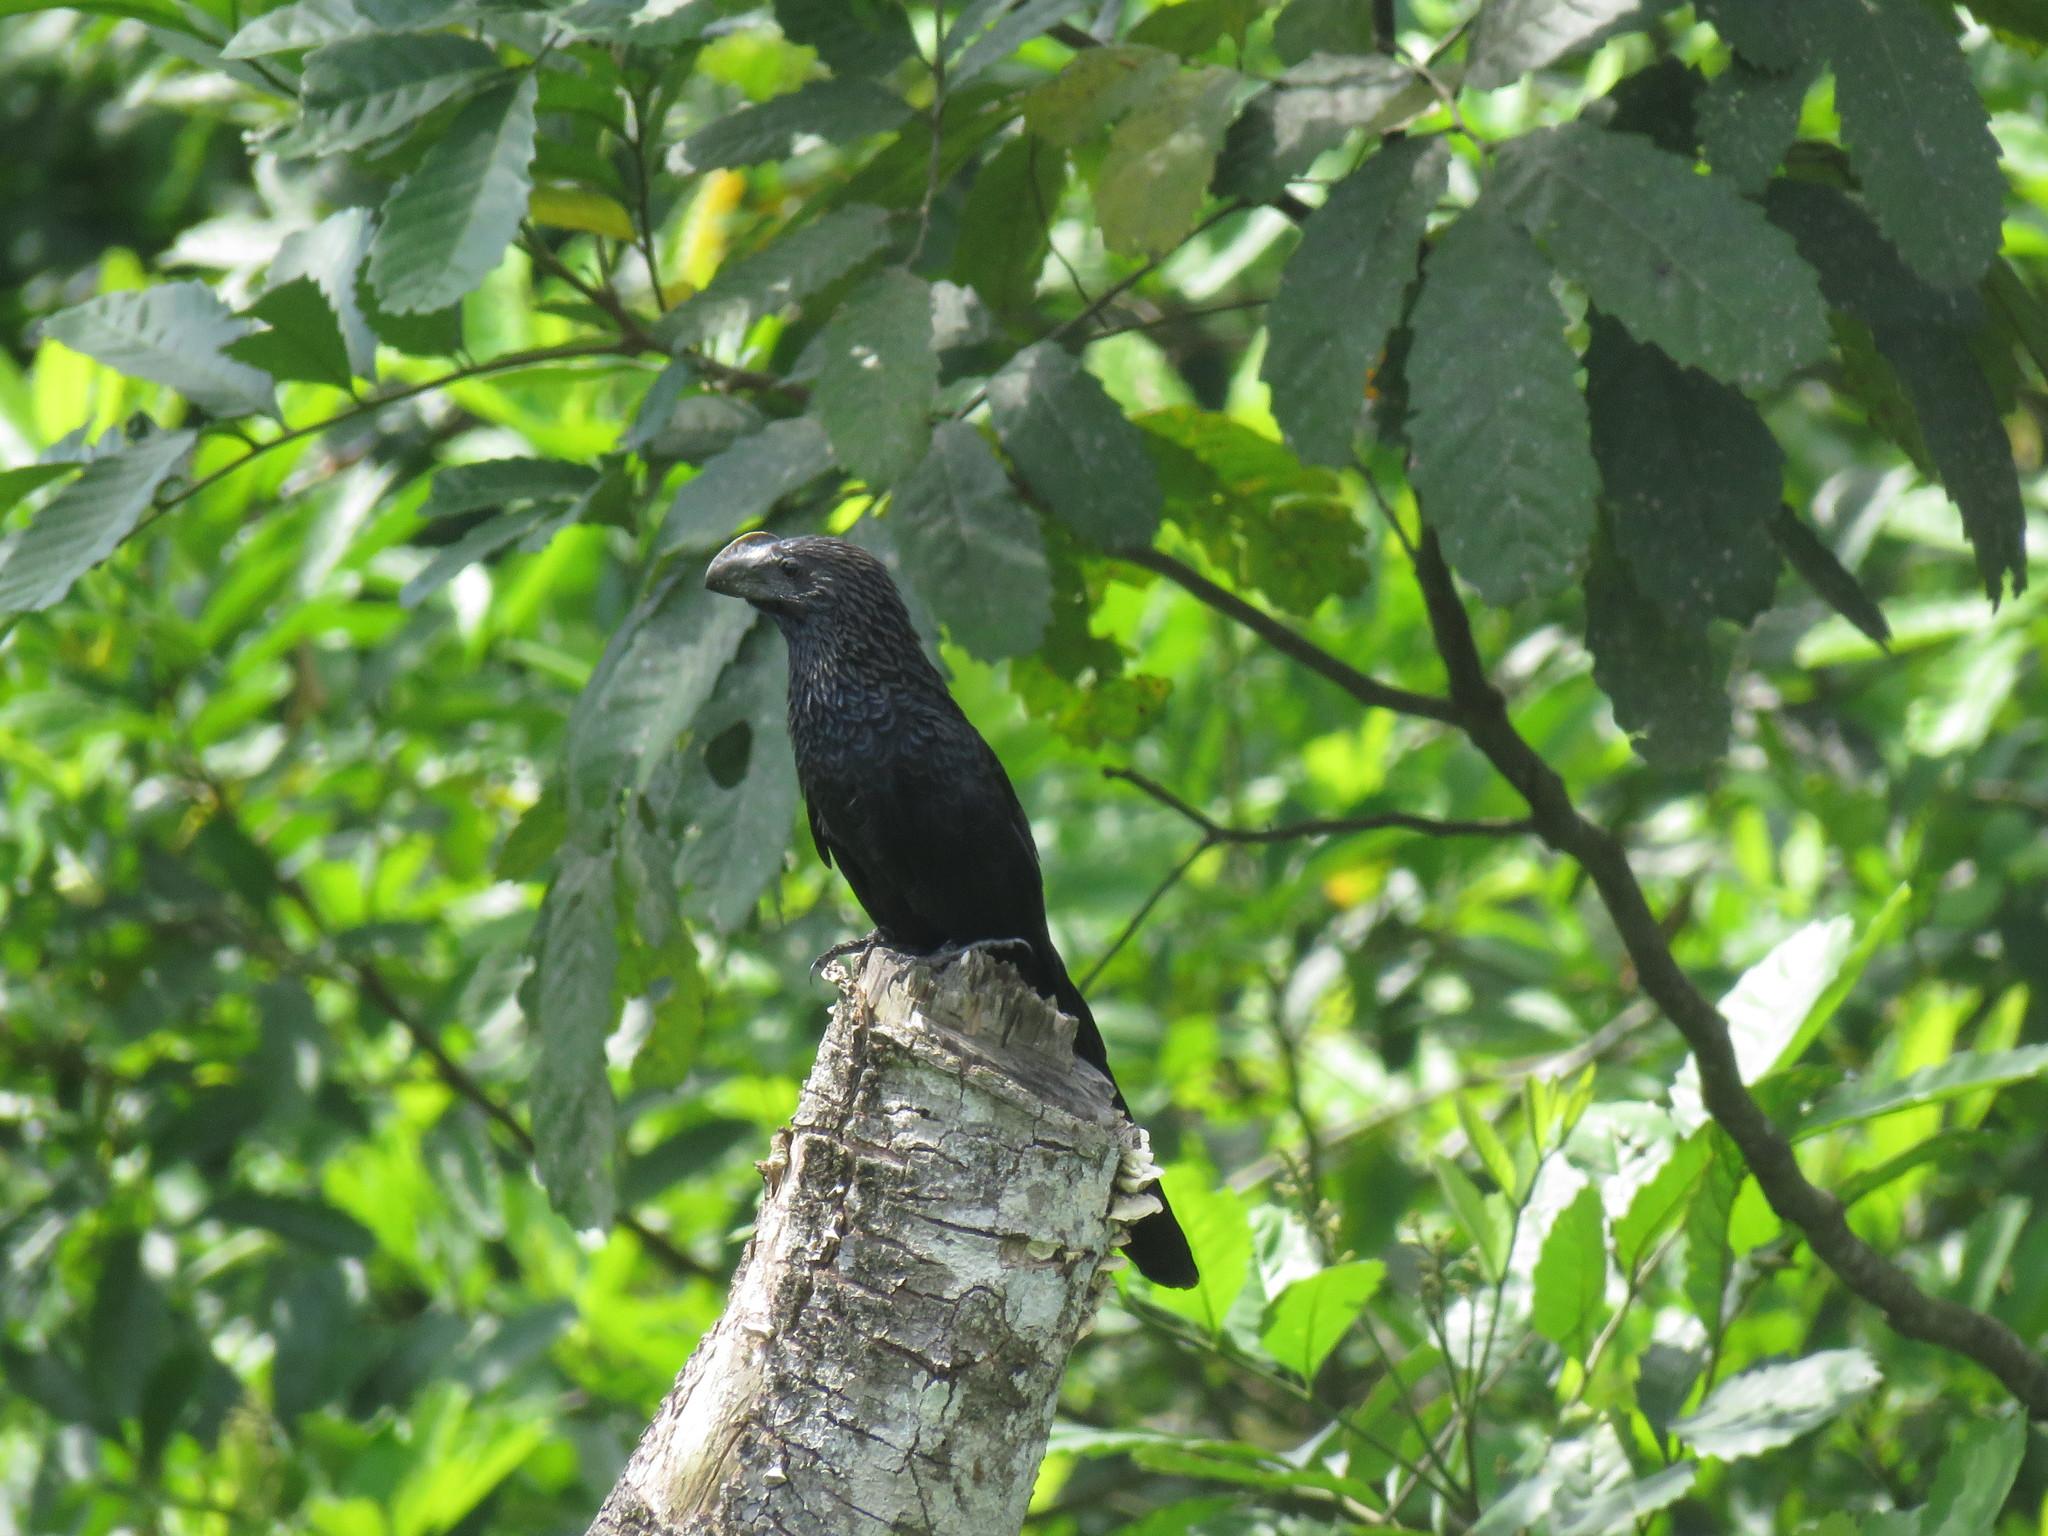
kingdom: Animalia
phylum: Chordata
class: Aves
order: Cuculiformes
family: Cuculidae
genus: Crotophaga
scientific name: Crotophaga ani
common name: Smooth-billed ani
